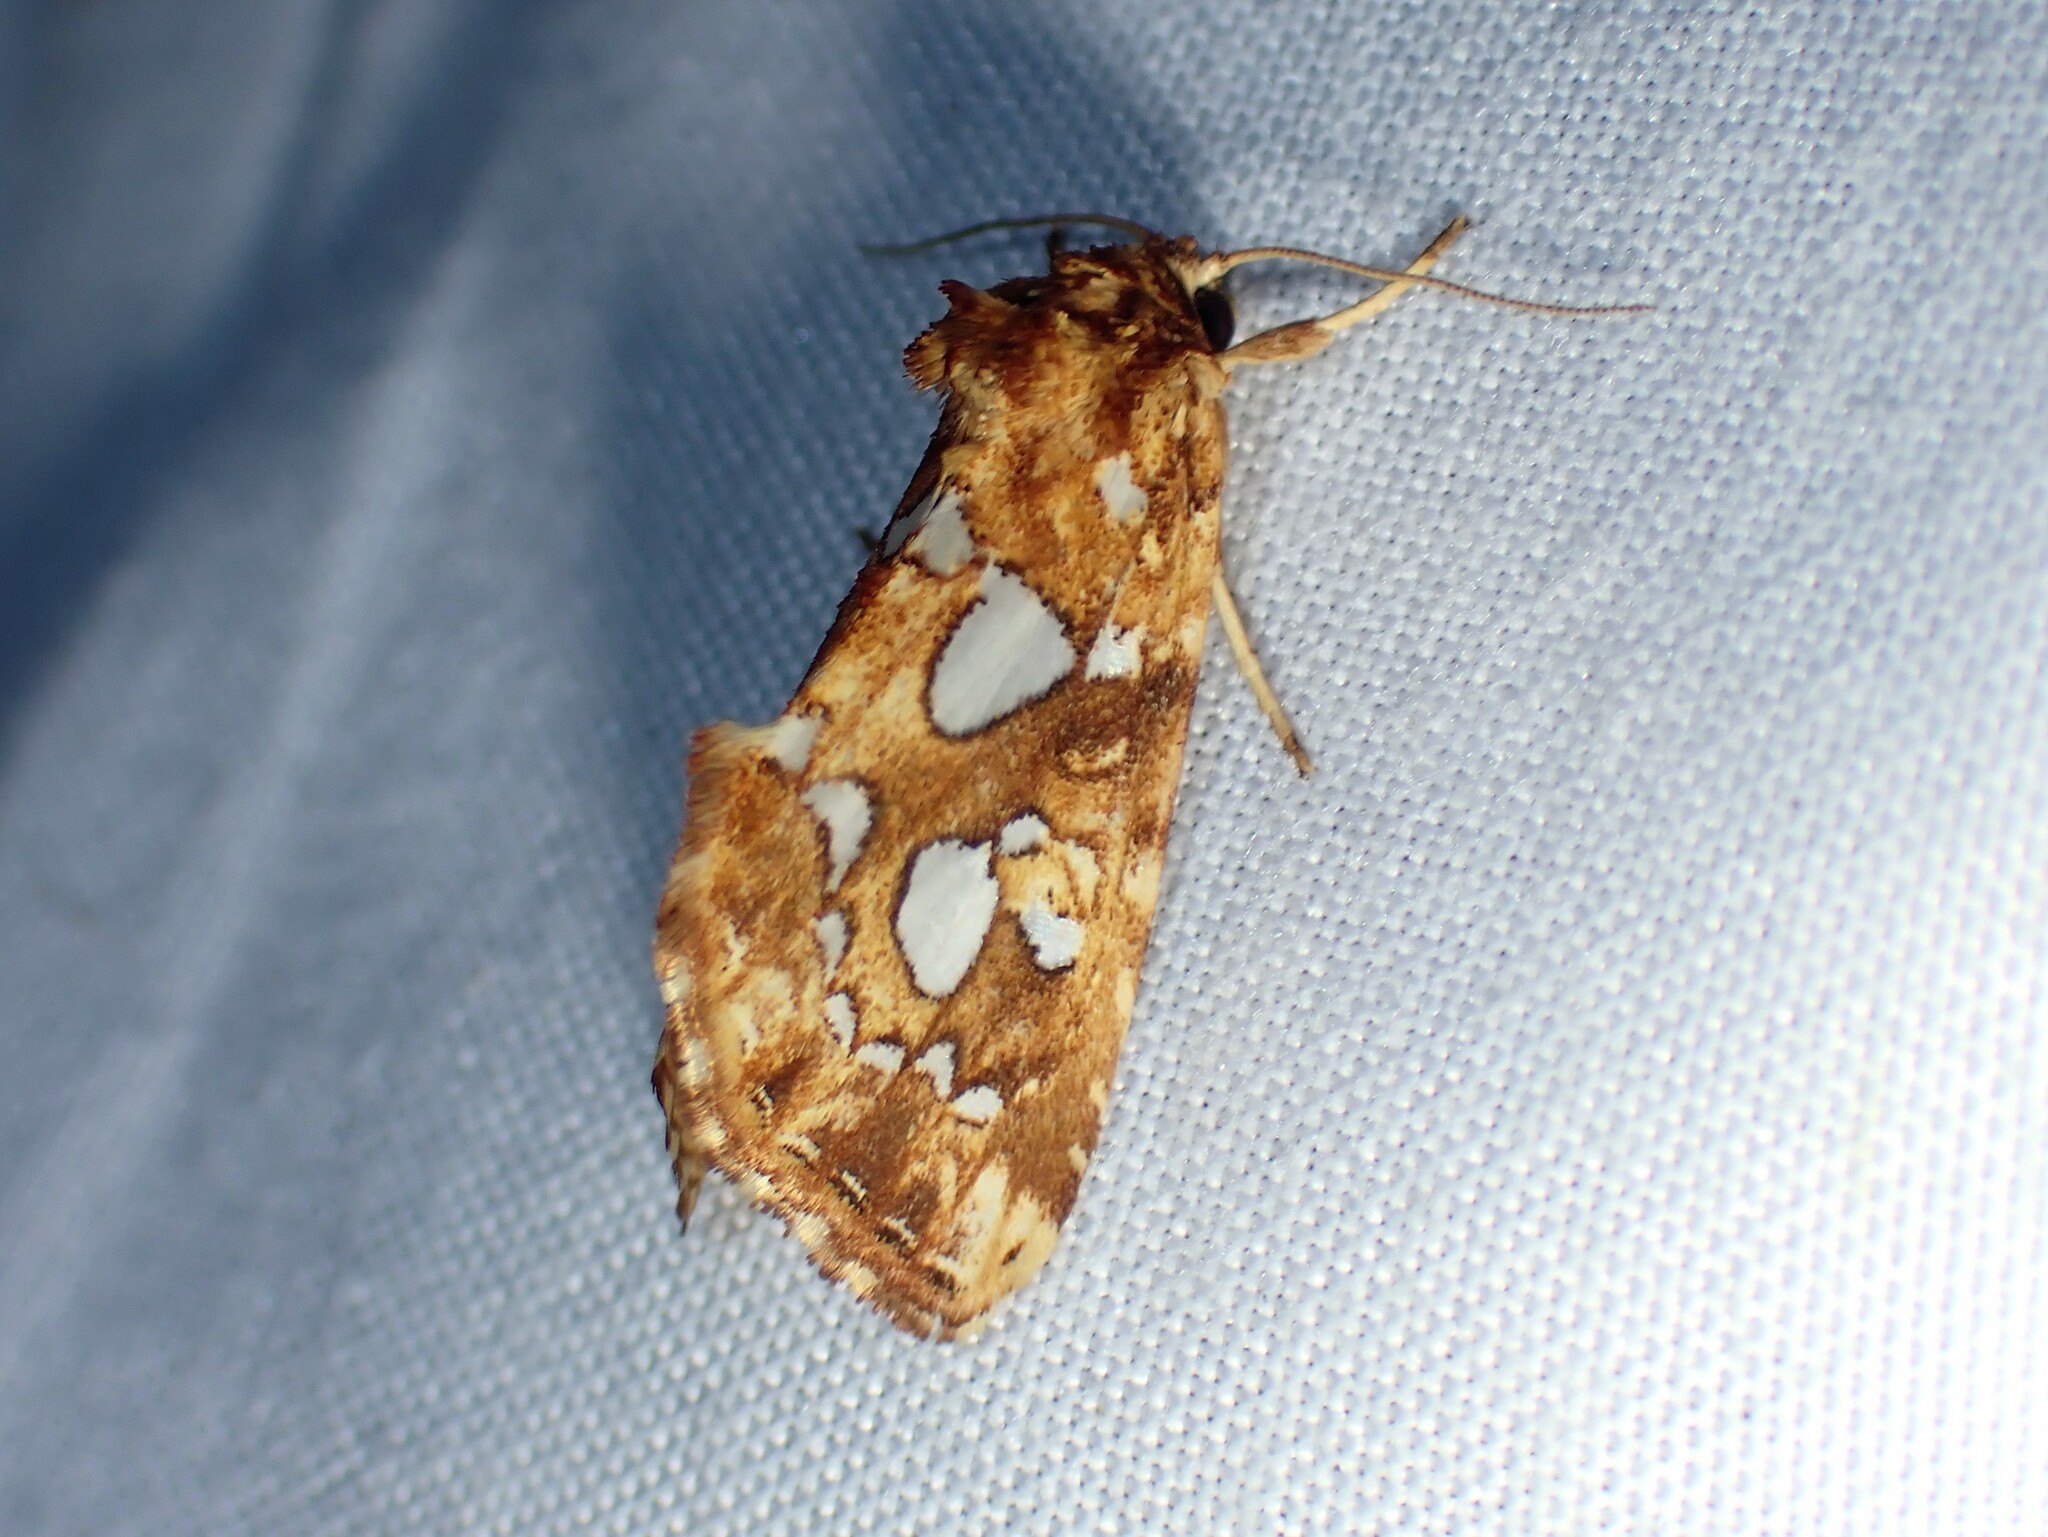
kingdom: Animalia
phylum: Arthropoda
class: Insecta
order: Lepidoptera
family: Noctuidae
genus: Callopistria
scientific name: Callopistria cordata
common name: Silver-spotted fern moth
